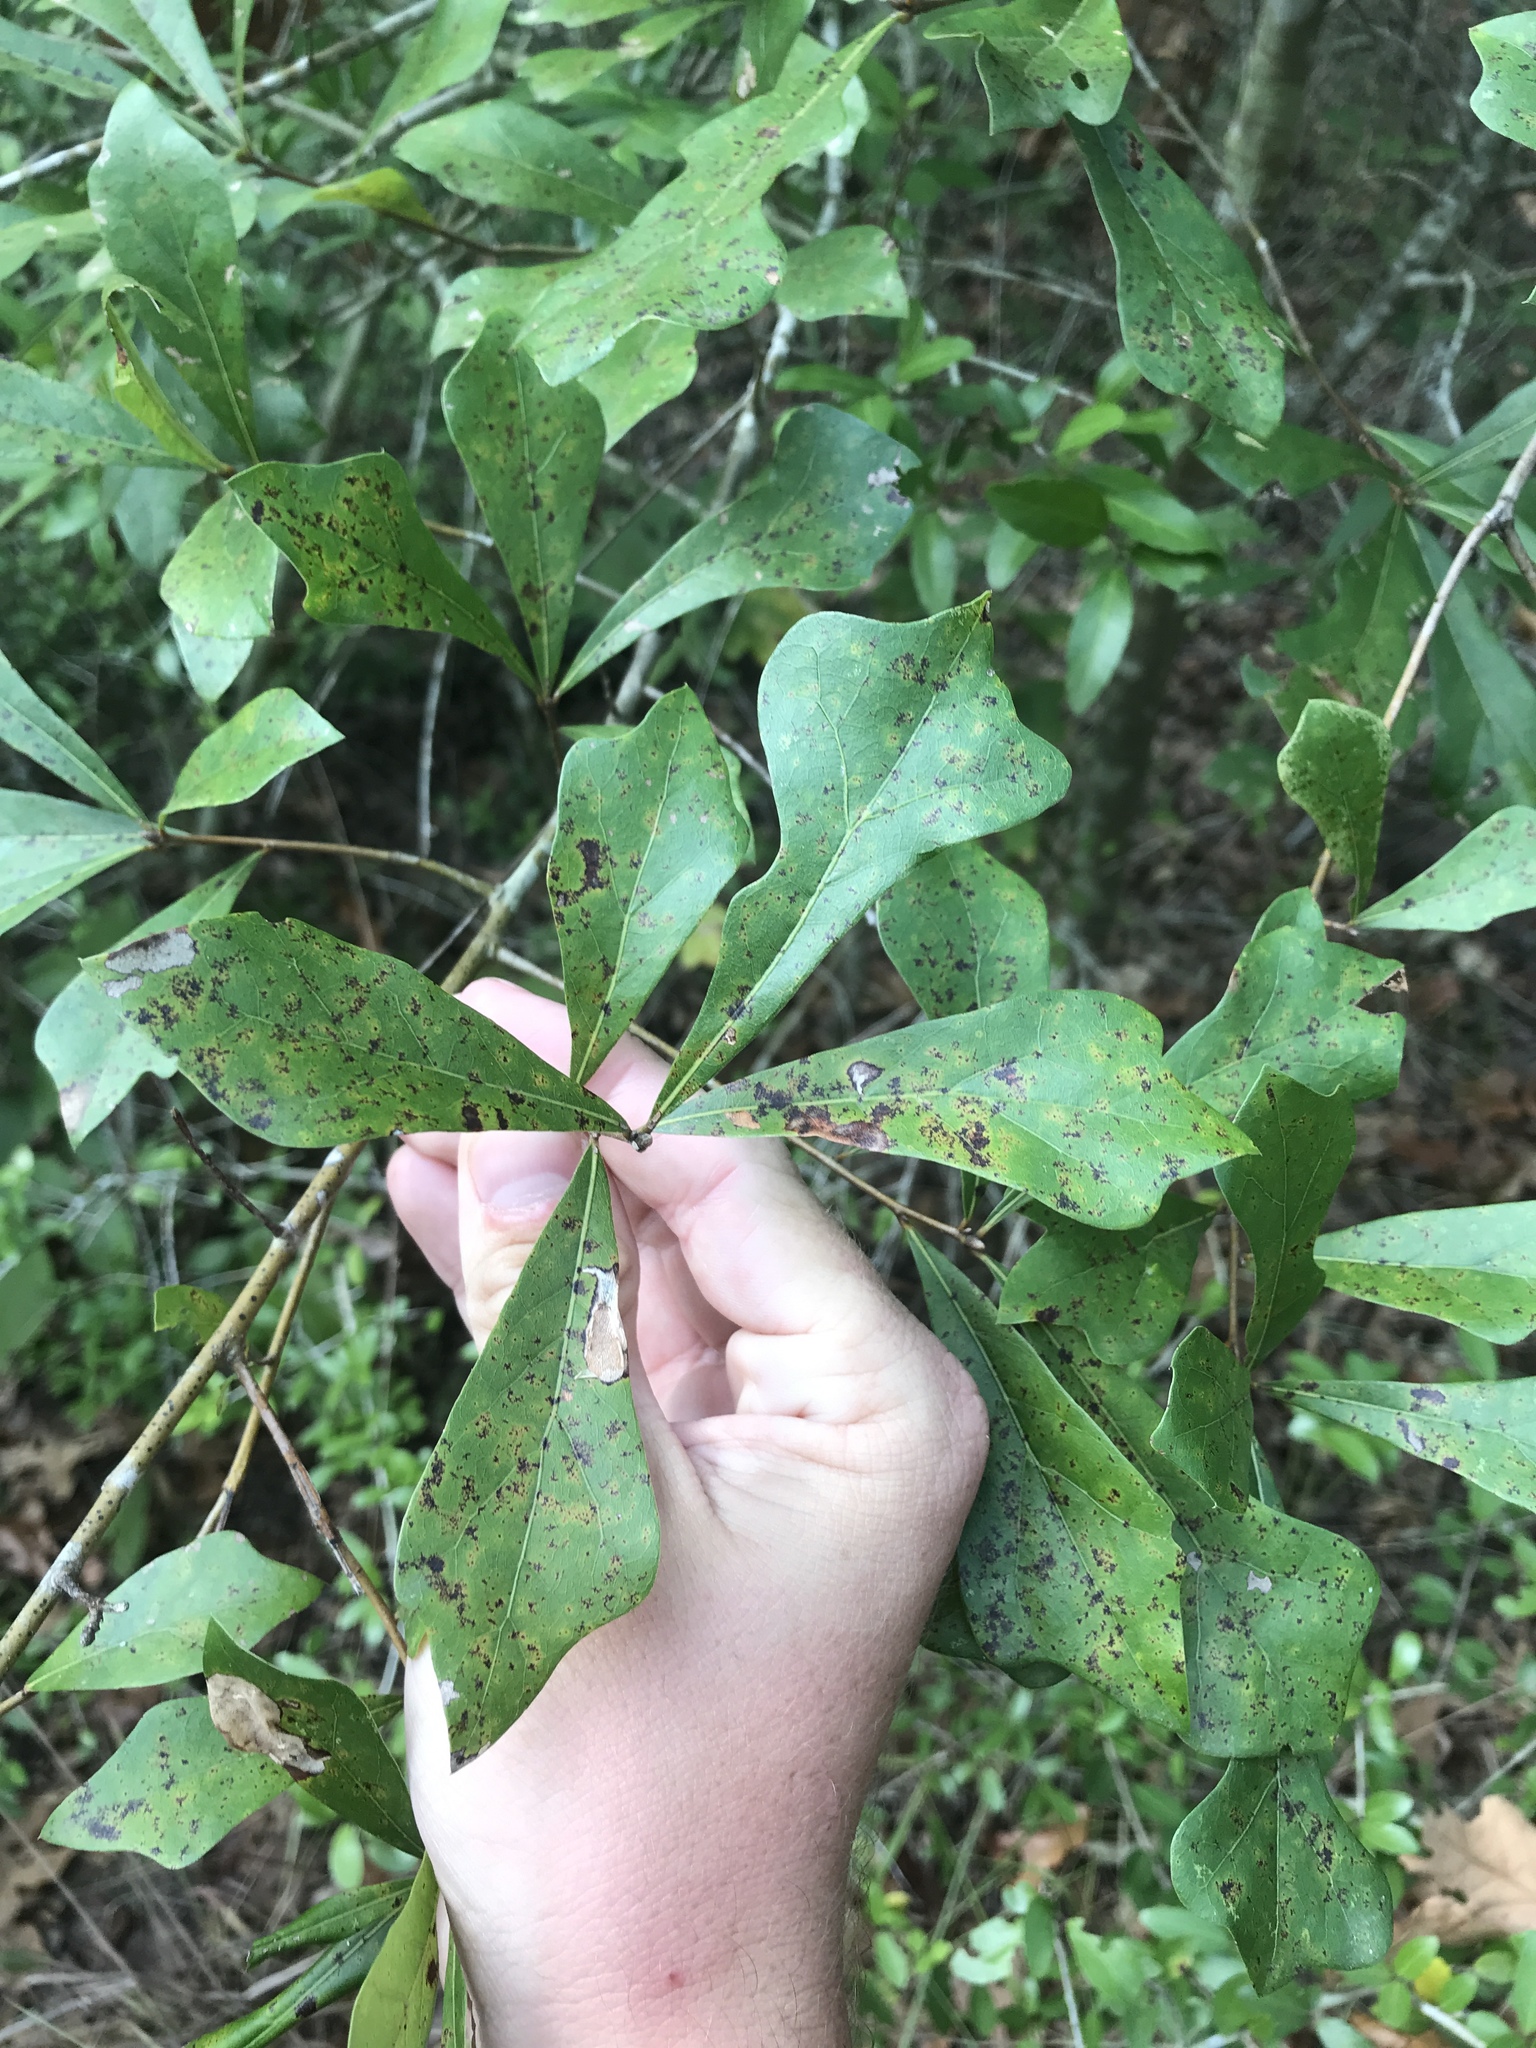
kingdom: Plantae
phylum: Tracheophyta
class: Magnoliopsida
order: Fagales
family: Fagaceae
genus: Quercus
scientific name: Quercus nigra
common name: Water oak
